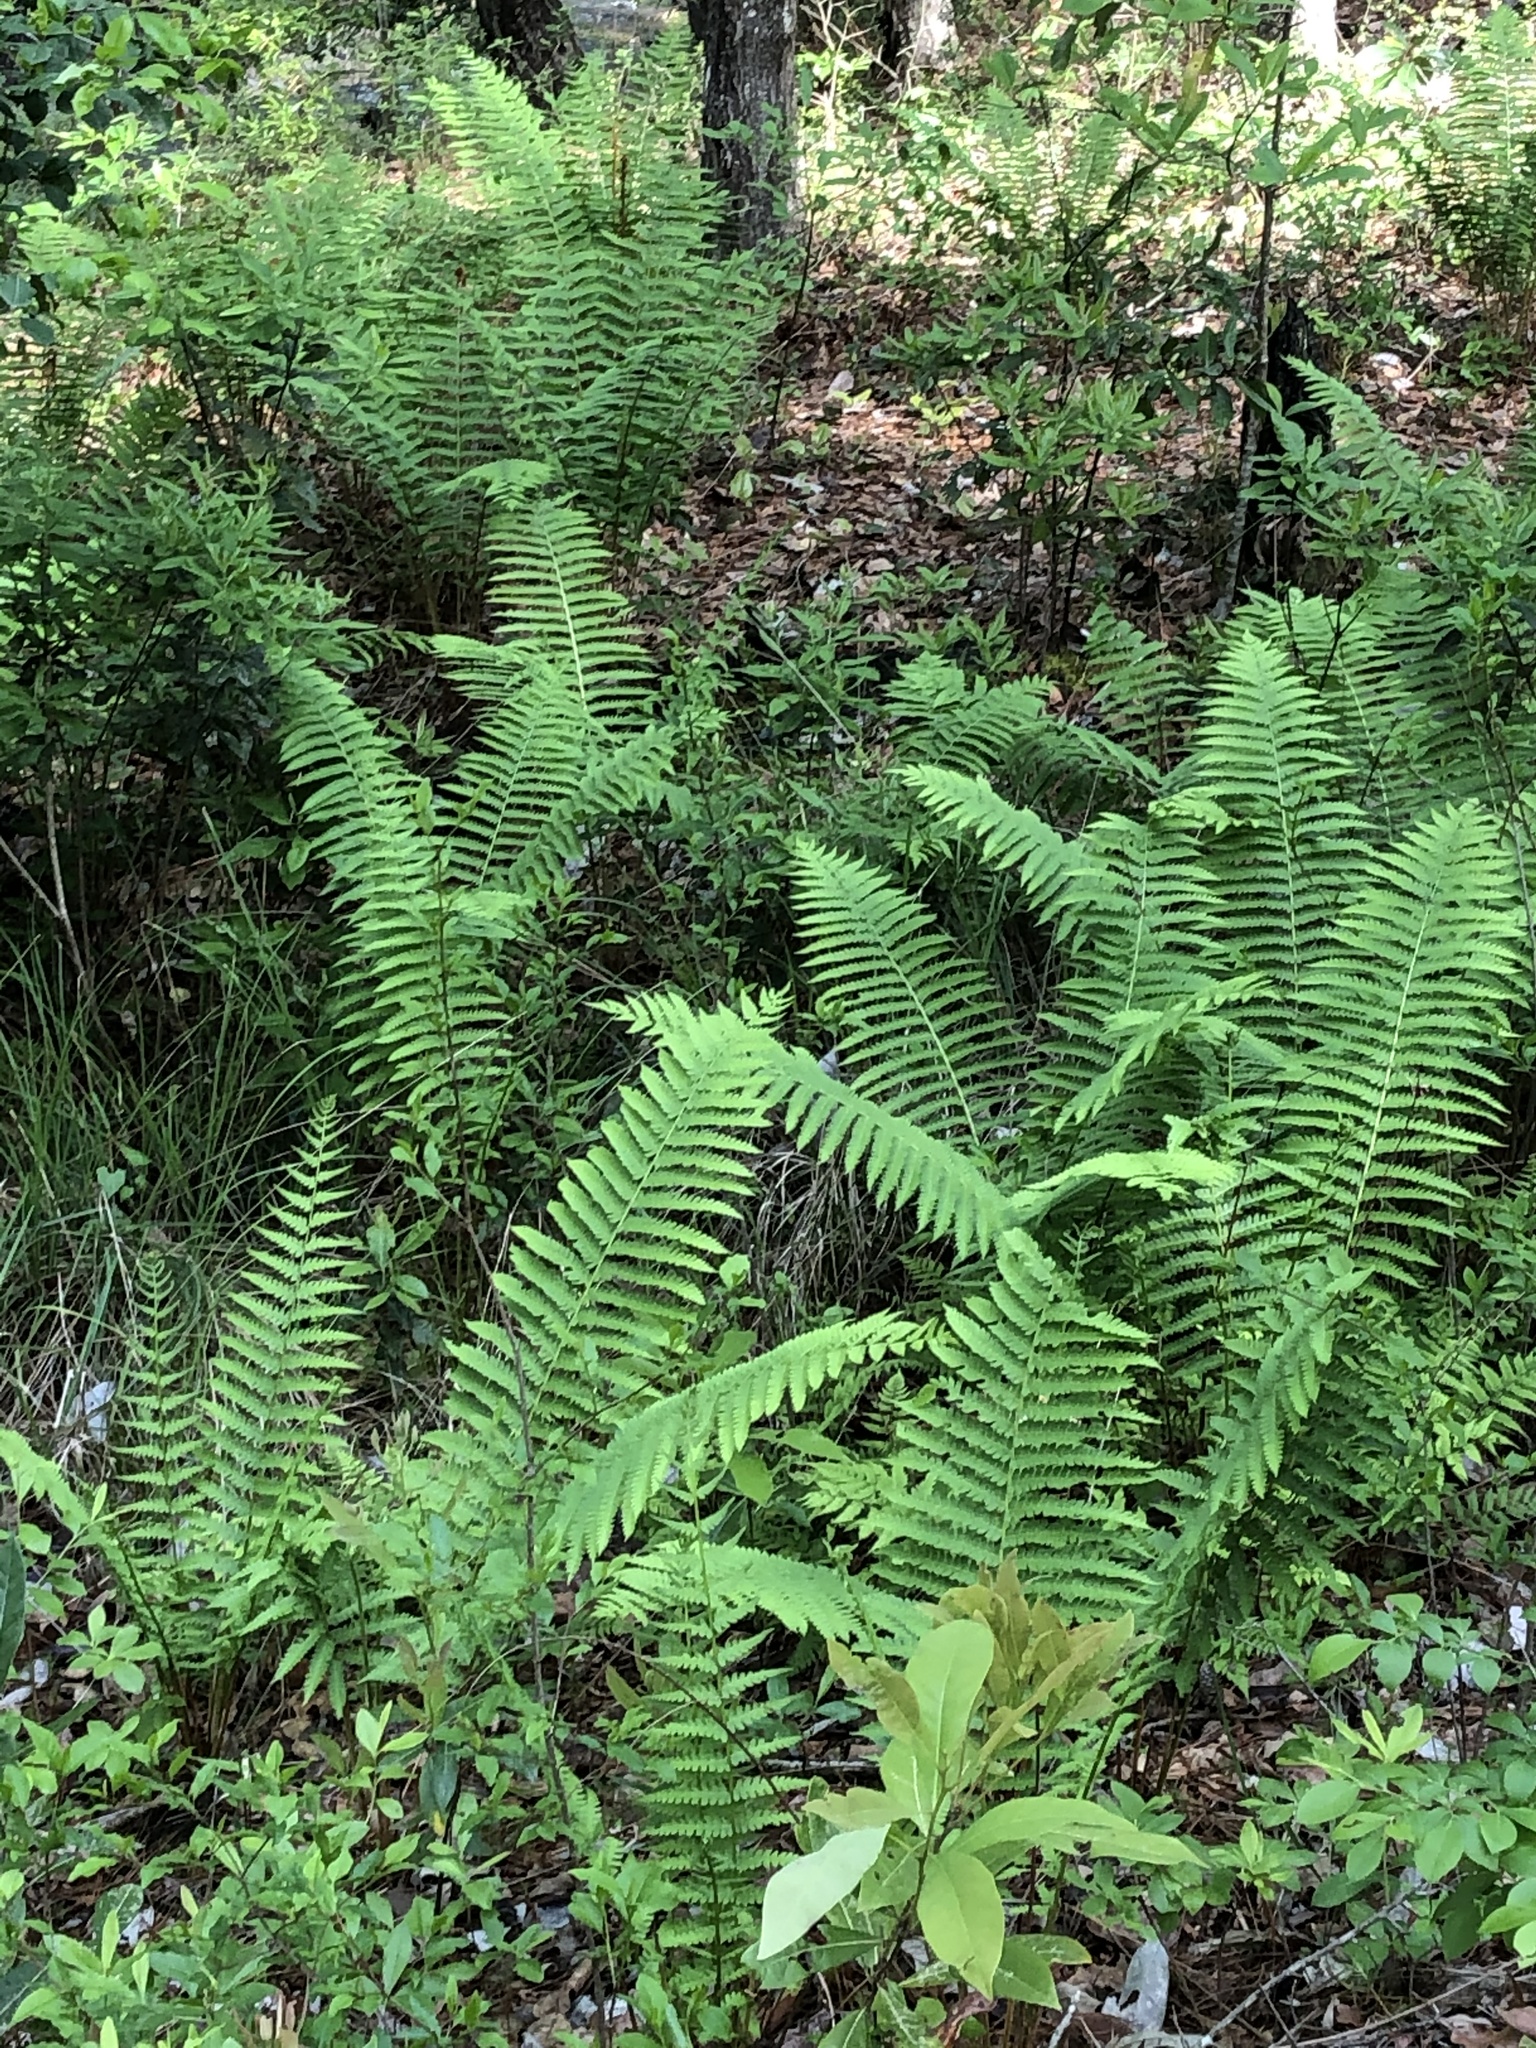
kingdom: Plantae
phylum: Tracheophyta
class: Polypodiopsida
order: Osmundales
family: Osmundaceae
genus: Osmundastrum
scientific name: Osmundastrum cinnamomeum
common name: Cinnamon fern
